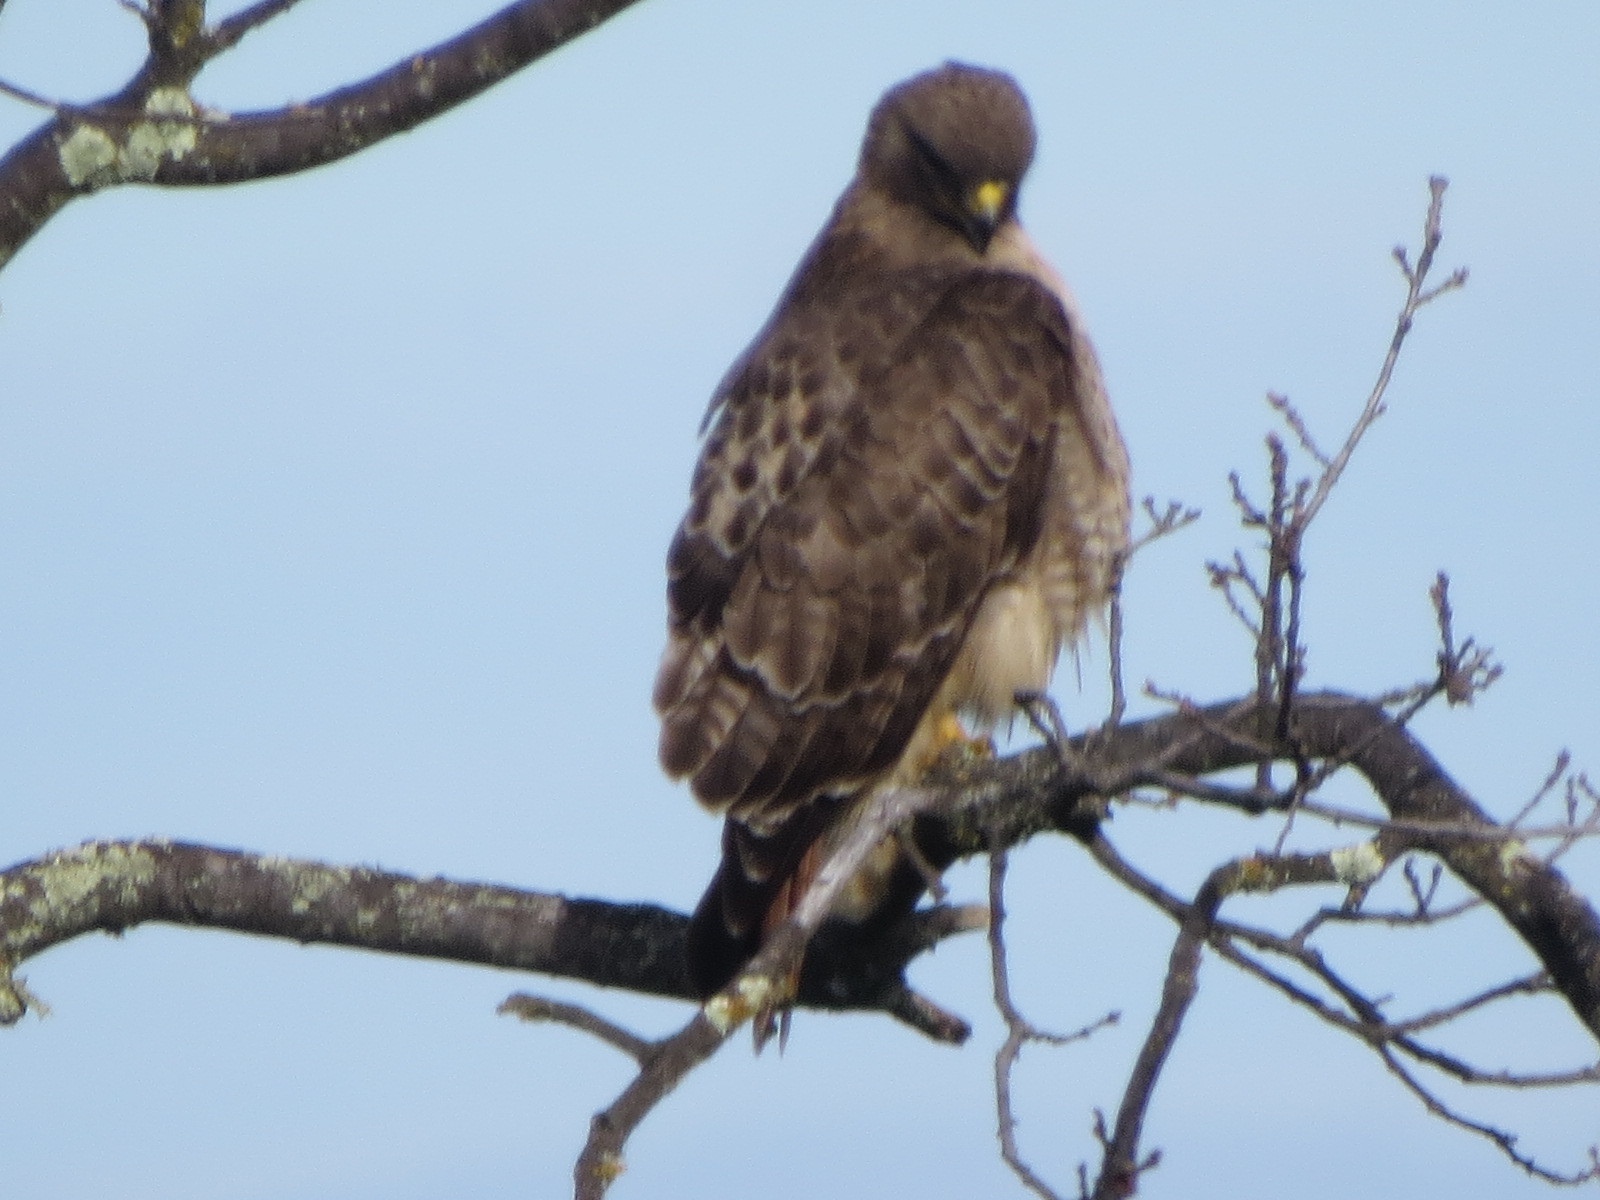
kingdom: Animalia
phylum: Chordata
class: Aves
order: Accipitriformes
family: Accipitridae
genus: Buteo
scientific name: Buteo jamaicensis
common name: Red-tailed hawk
